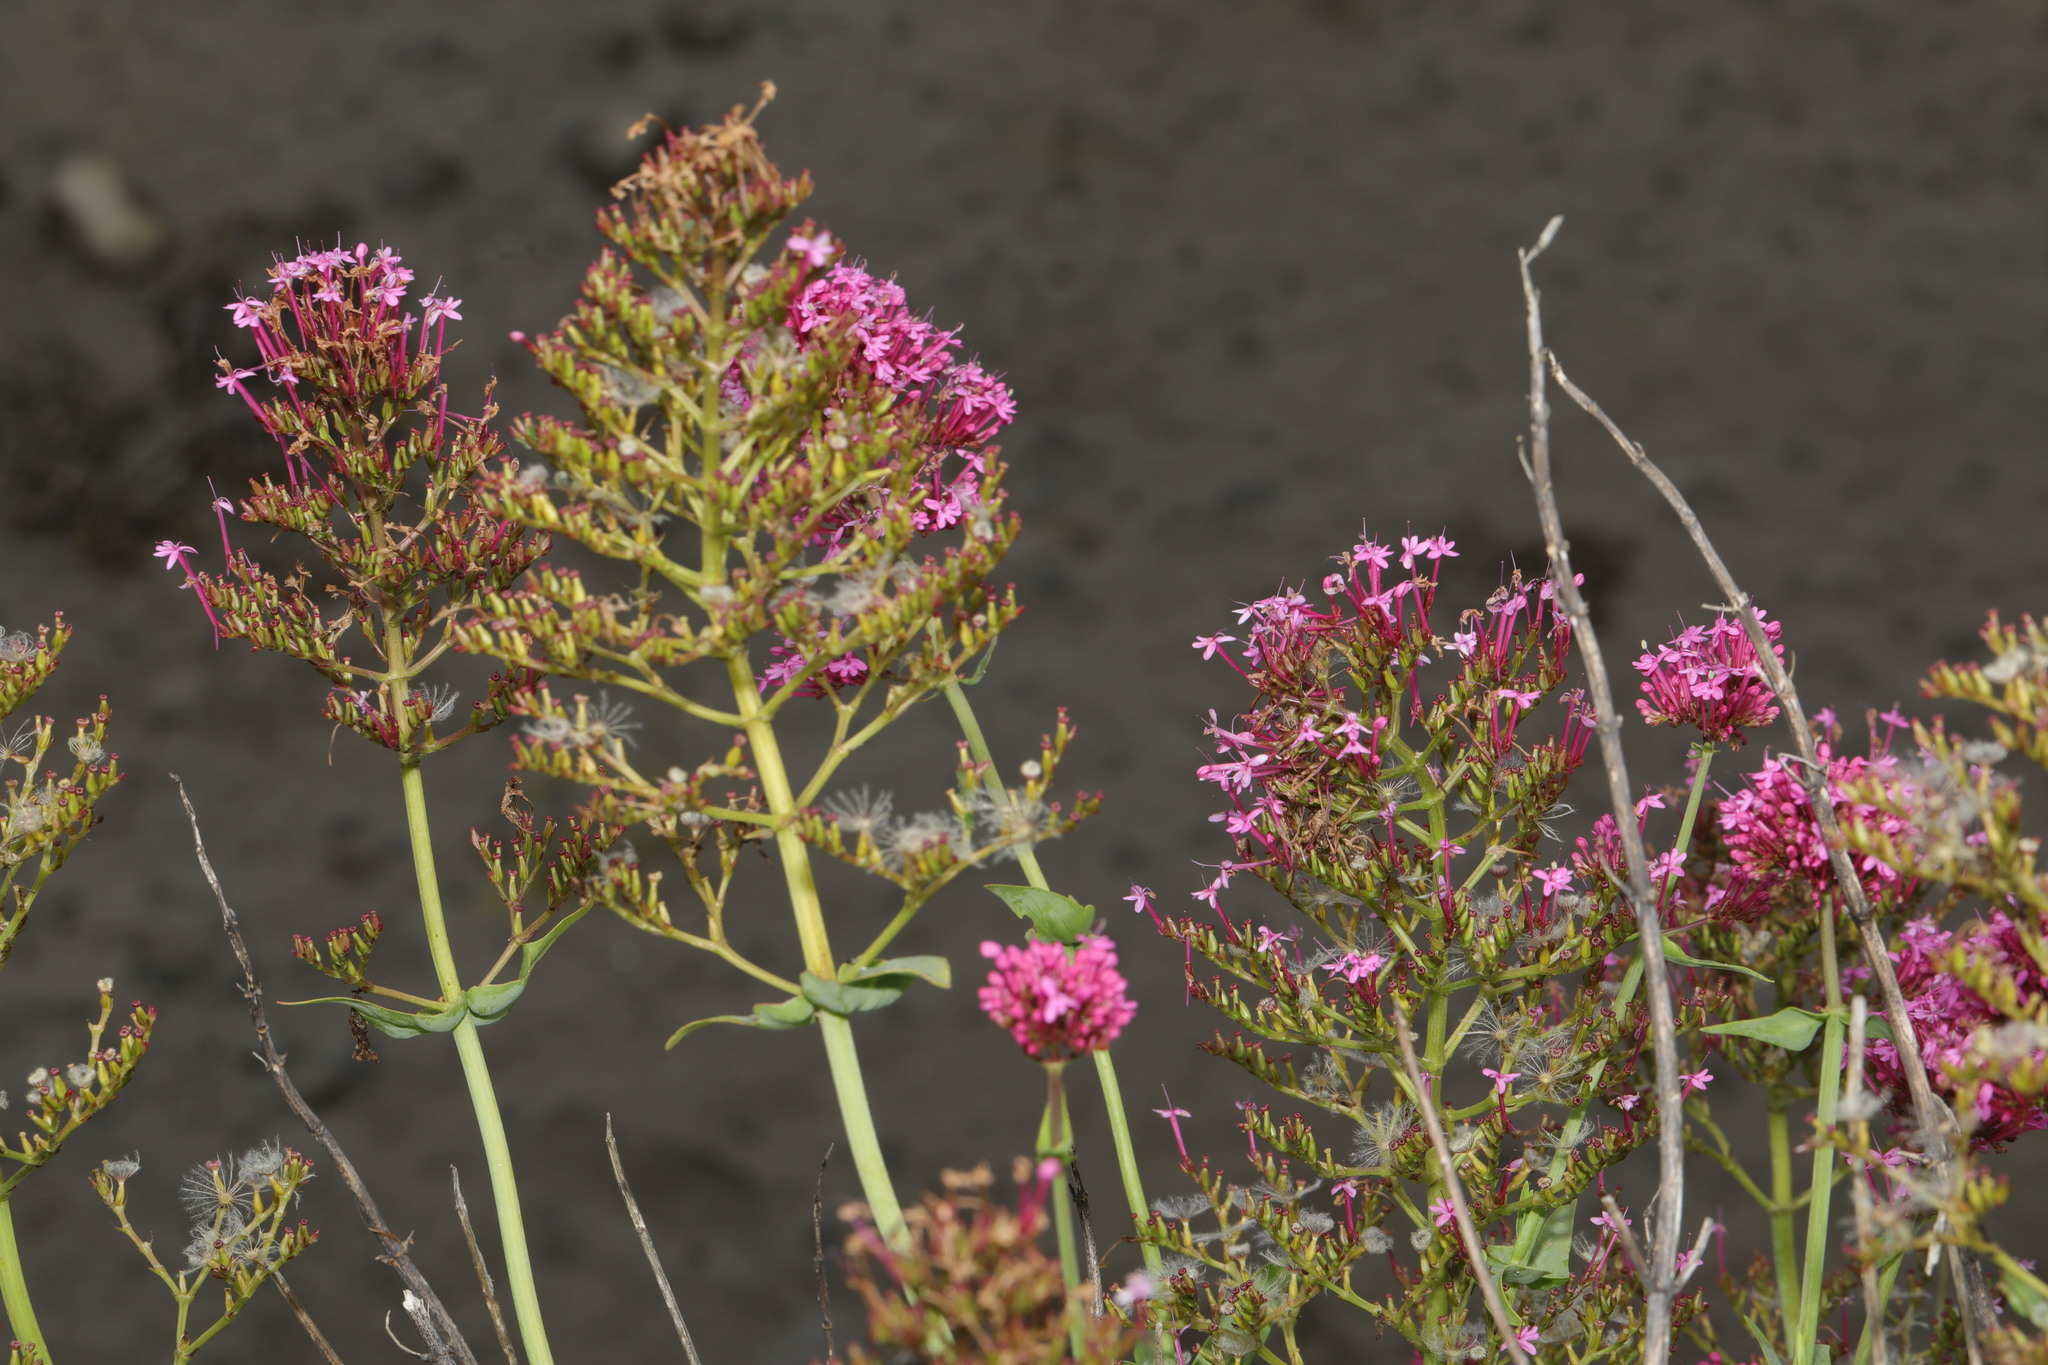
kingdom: Plantae
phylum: Tracheophyta
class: Magnoliopsida
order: Dipsacales
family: Caprifoliaceae
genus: Centranthus
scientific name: Centranthus ruber
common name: Red valerian
